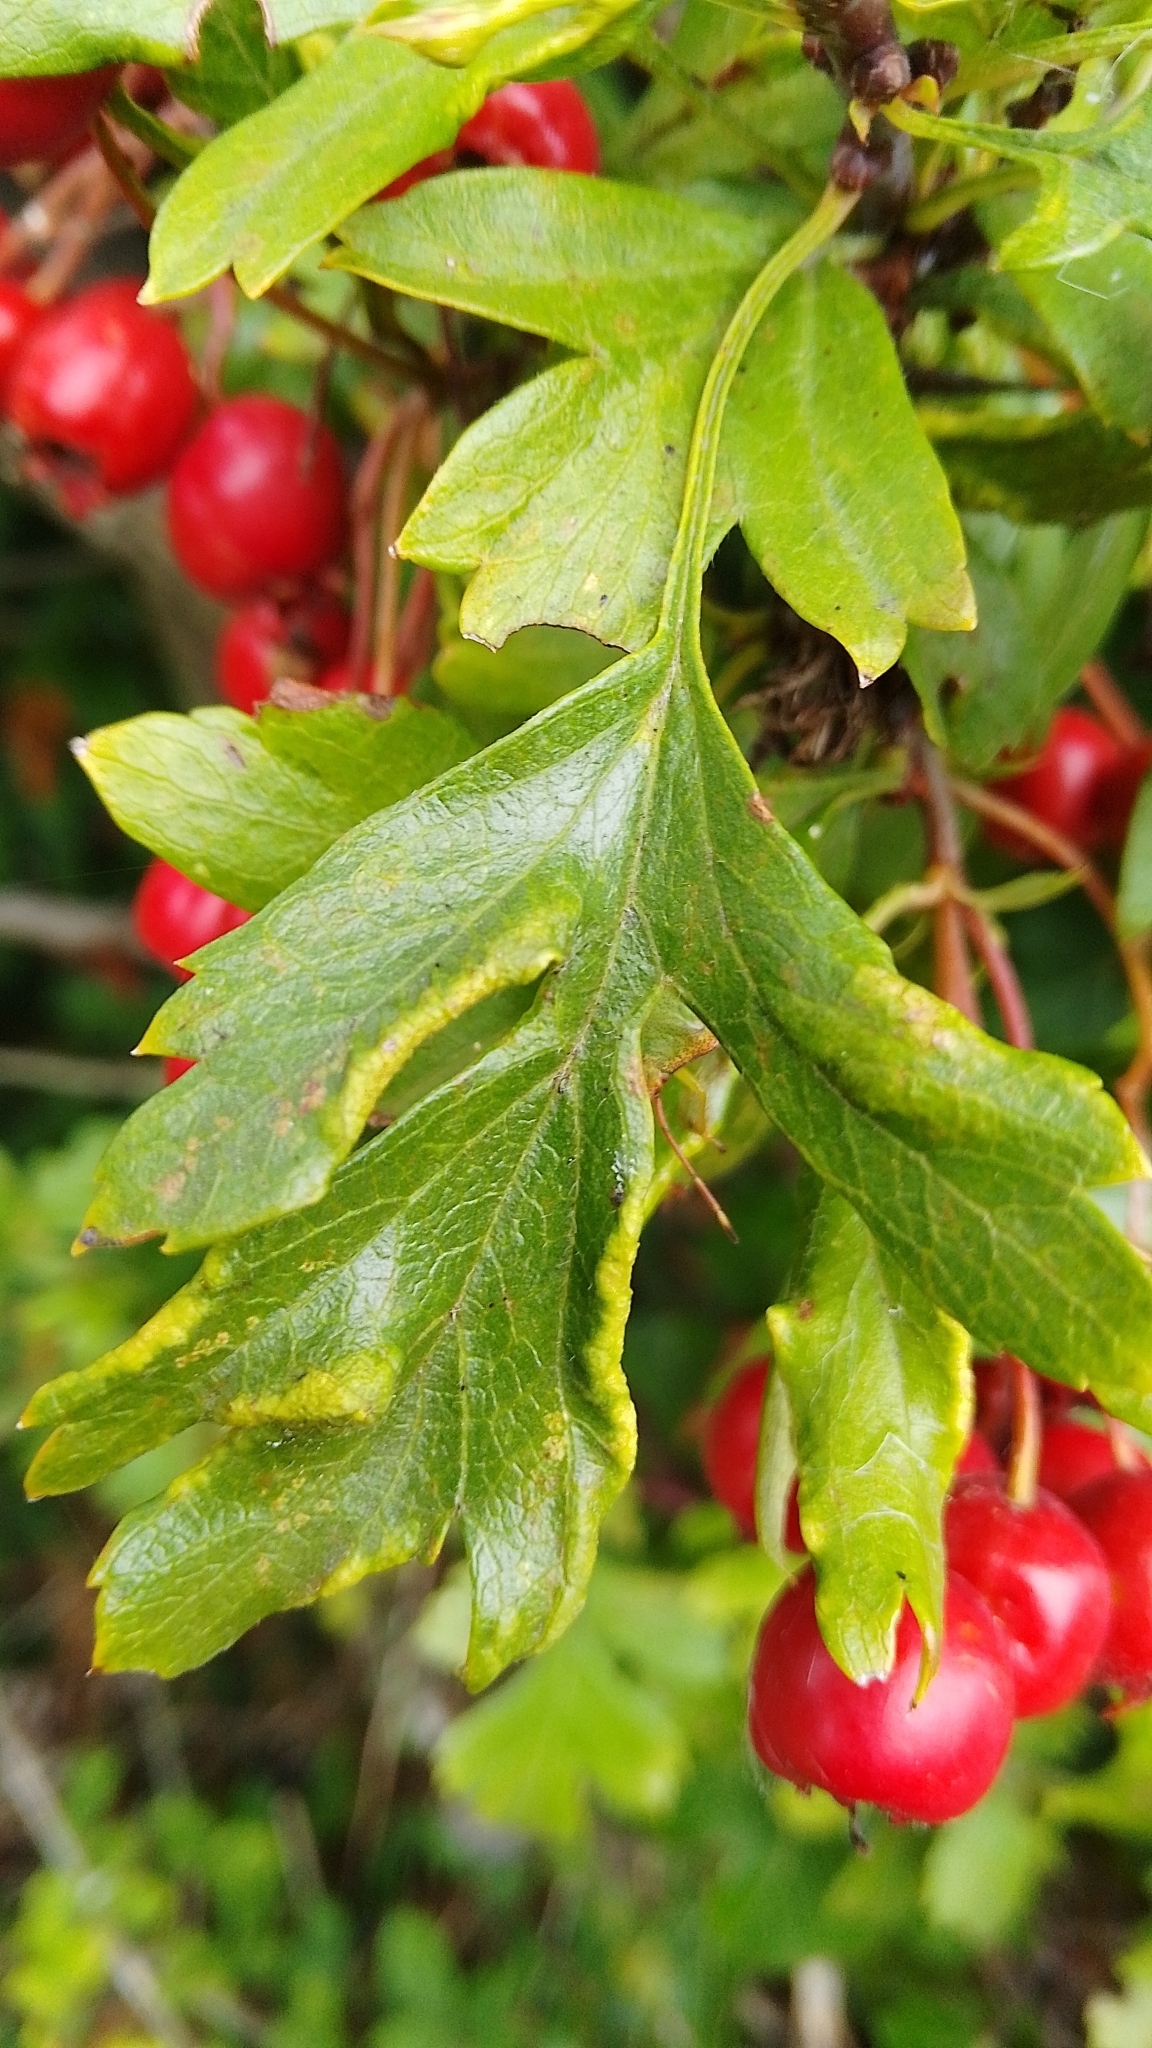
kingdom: Animalia
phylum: Arthropoda
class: Arachnida
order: Trombidiformes
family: Eriophyidae
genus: Phyllocoptes
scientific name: Phyllocoptes goniothorax
